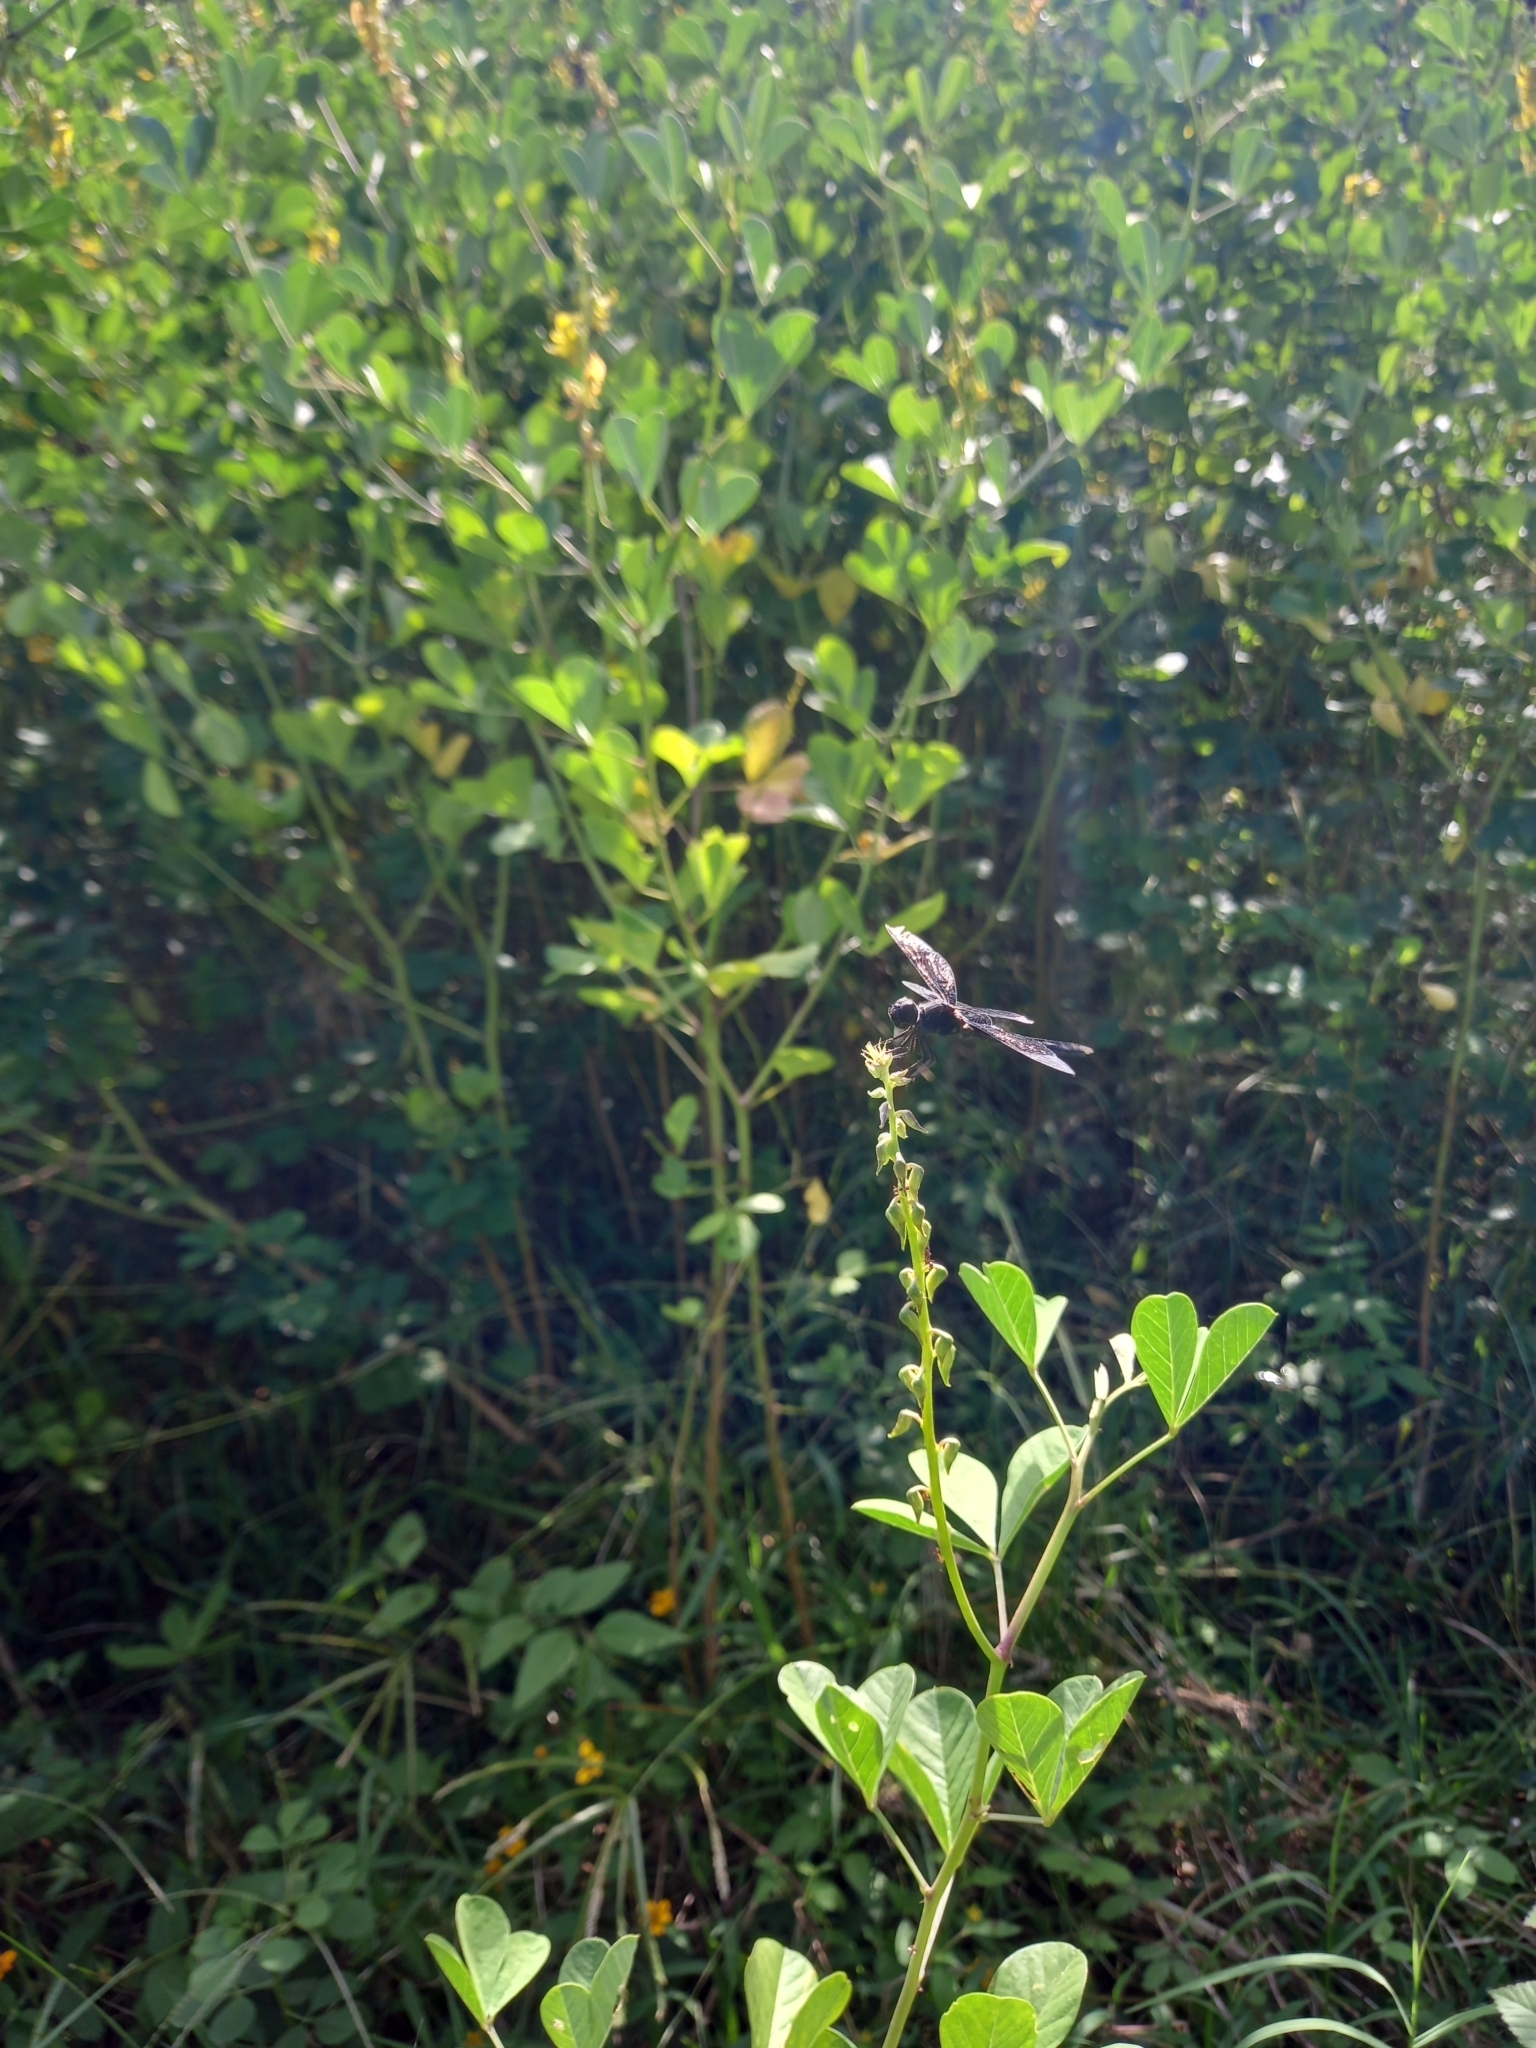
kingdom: Animalia
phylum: Arthropoda
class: Insecta
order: Odonata
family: Libellulidae
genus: Erythrodiplax
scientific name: Erythrodiplax funerea
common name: Black-winged dragonlet
